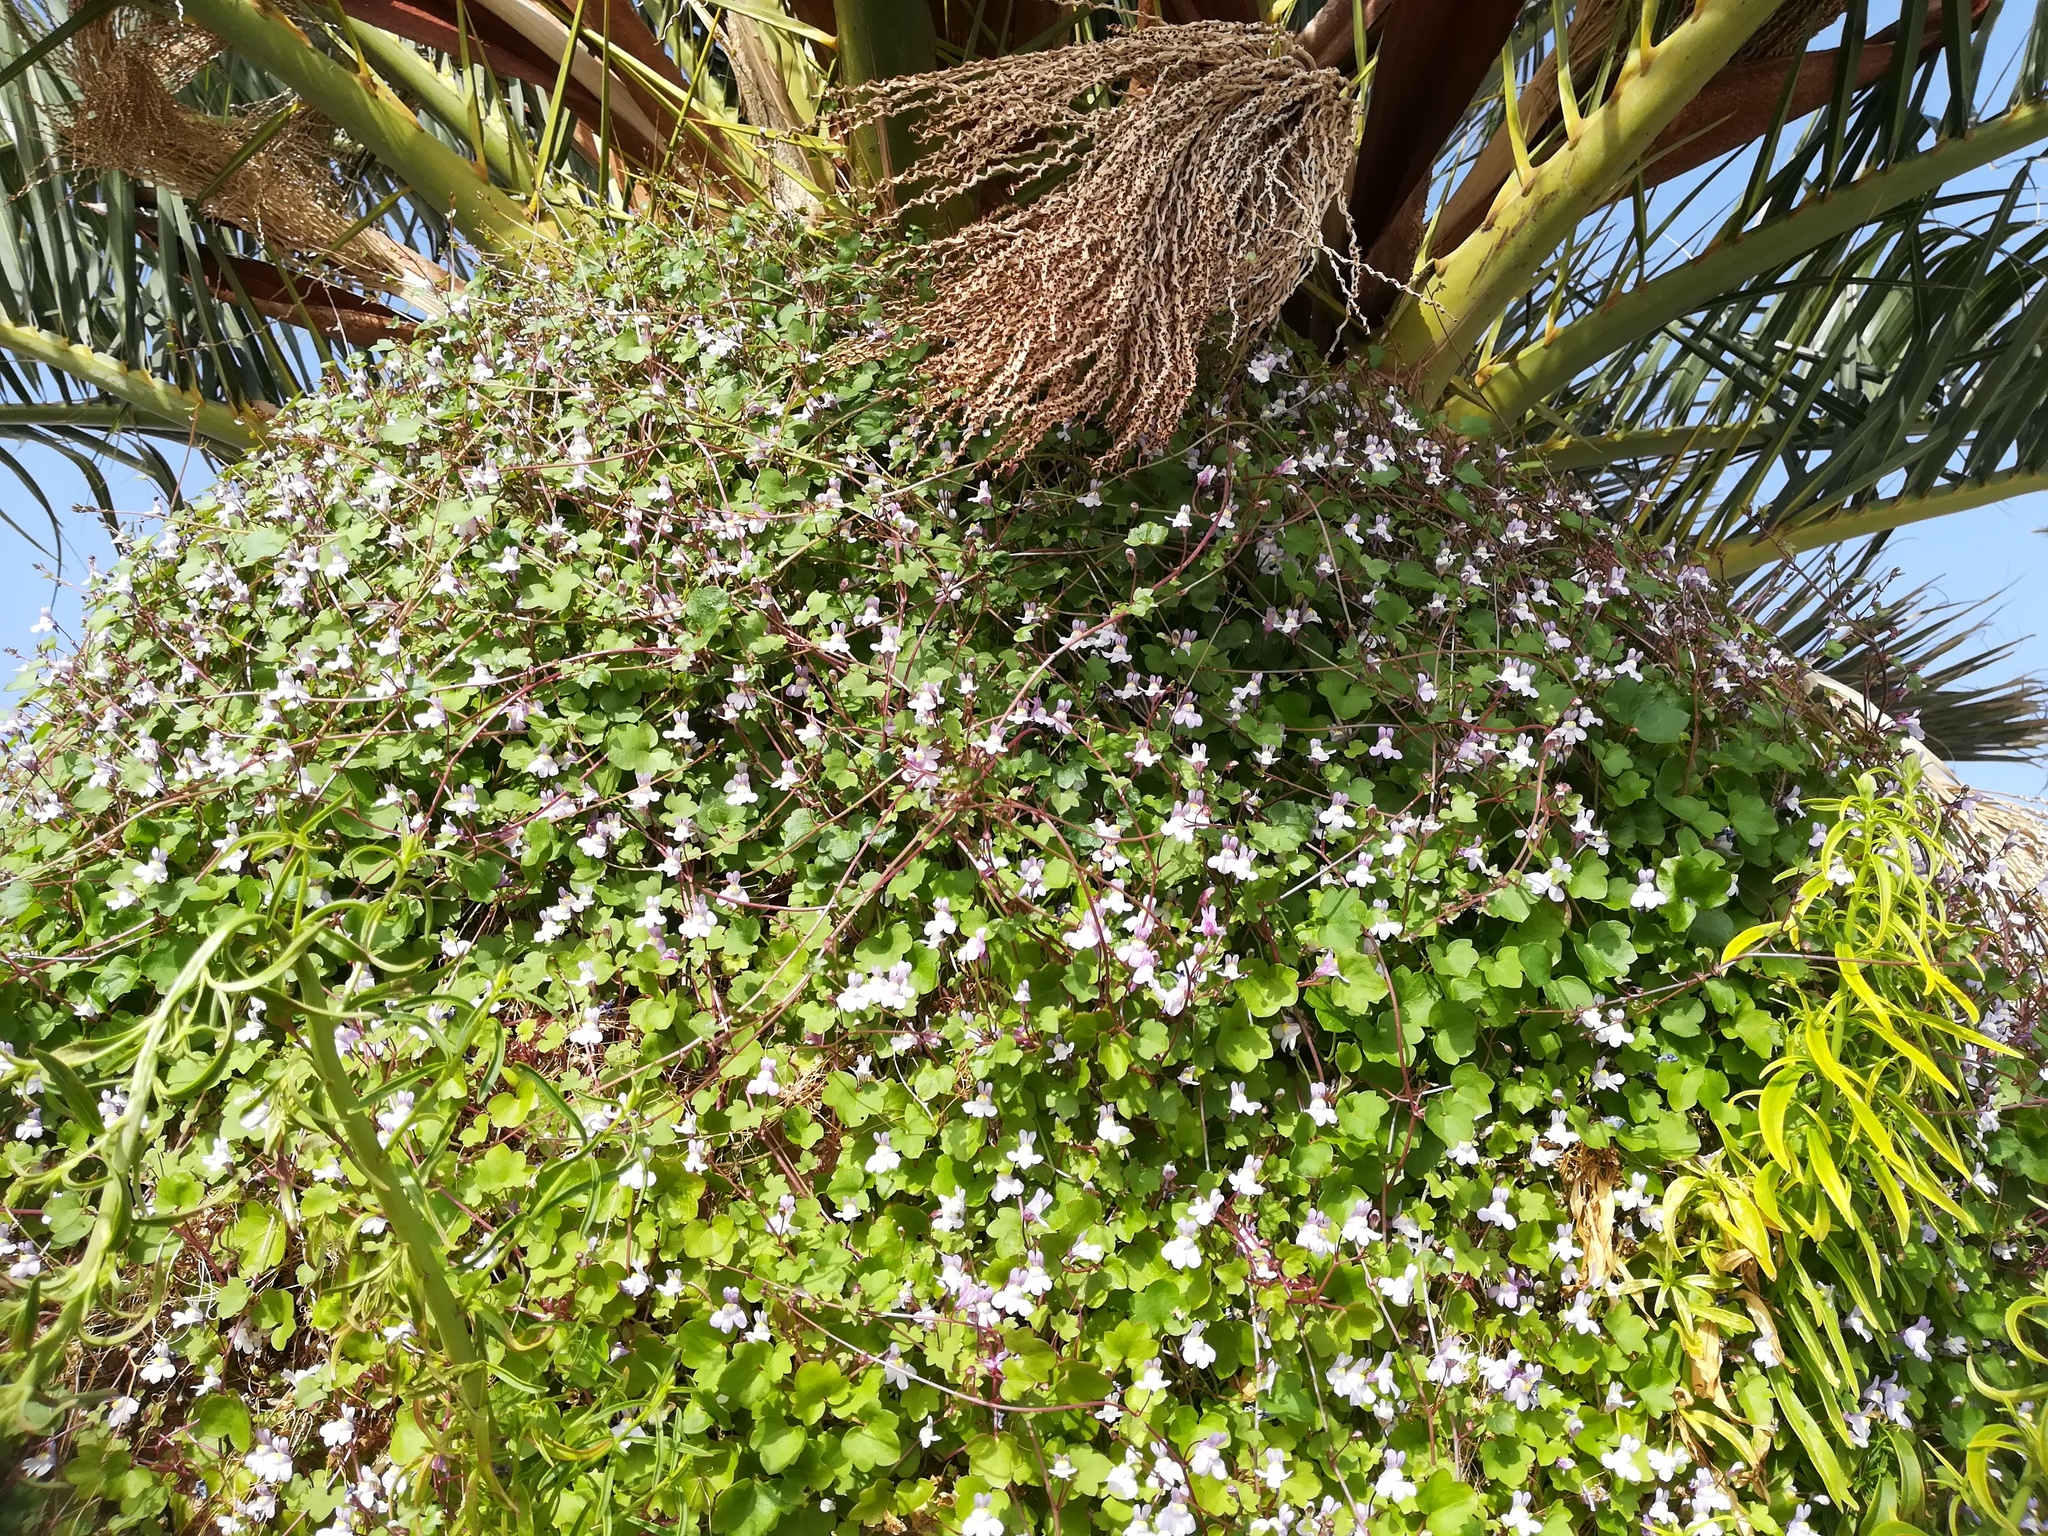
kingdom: Plantae
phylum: Tracheophyta
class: Magnoliopsida
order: Lamiales
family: Plantaginaceae
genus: Cymbalaria
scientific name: Cymbalaria muralis
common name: Ivy-leaved toadflax
